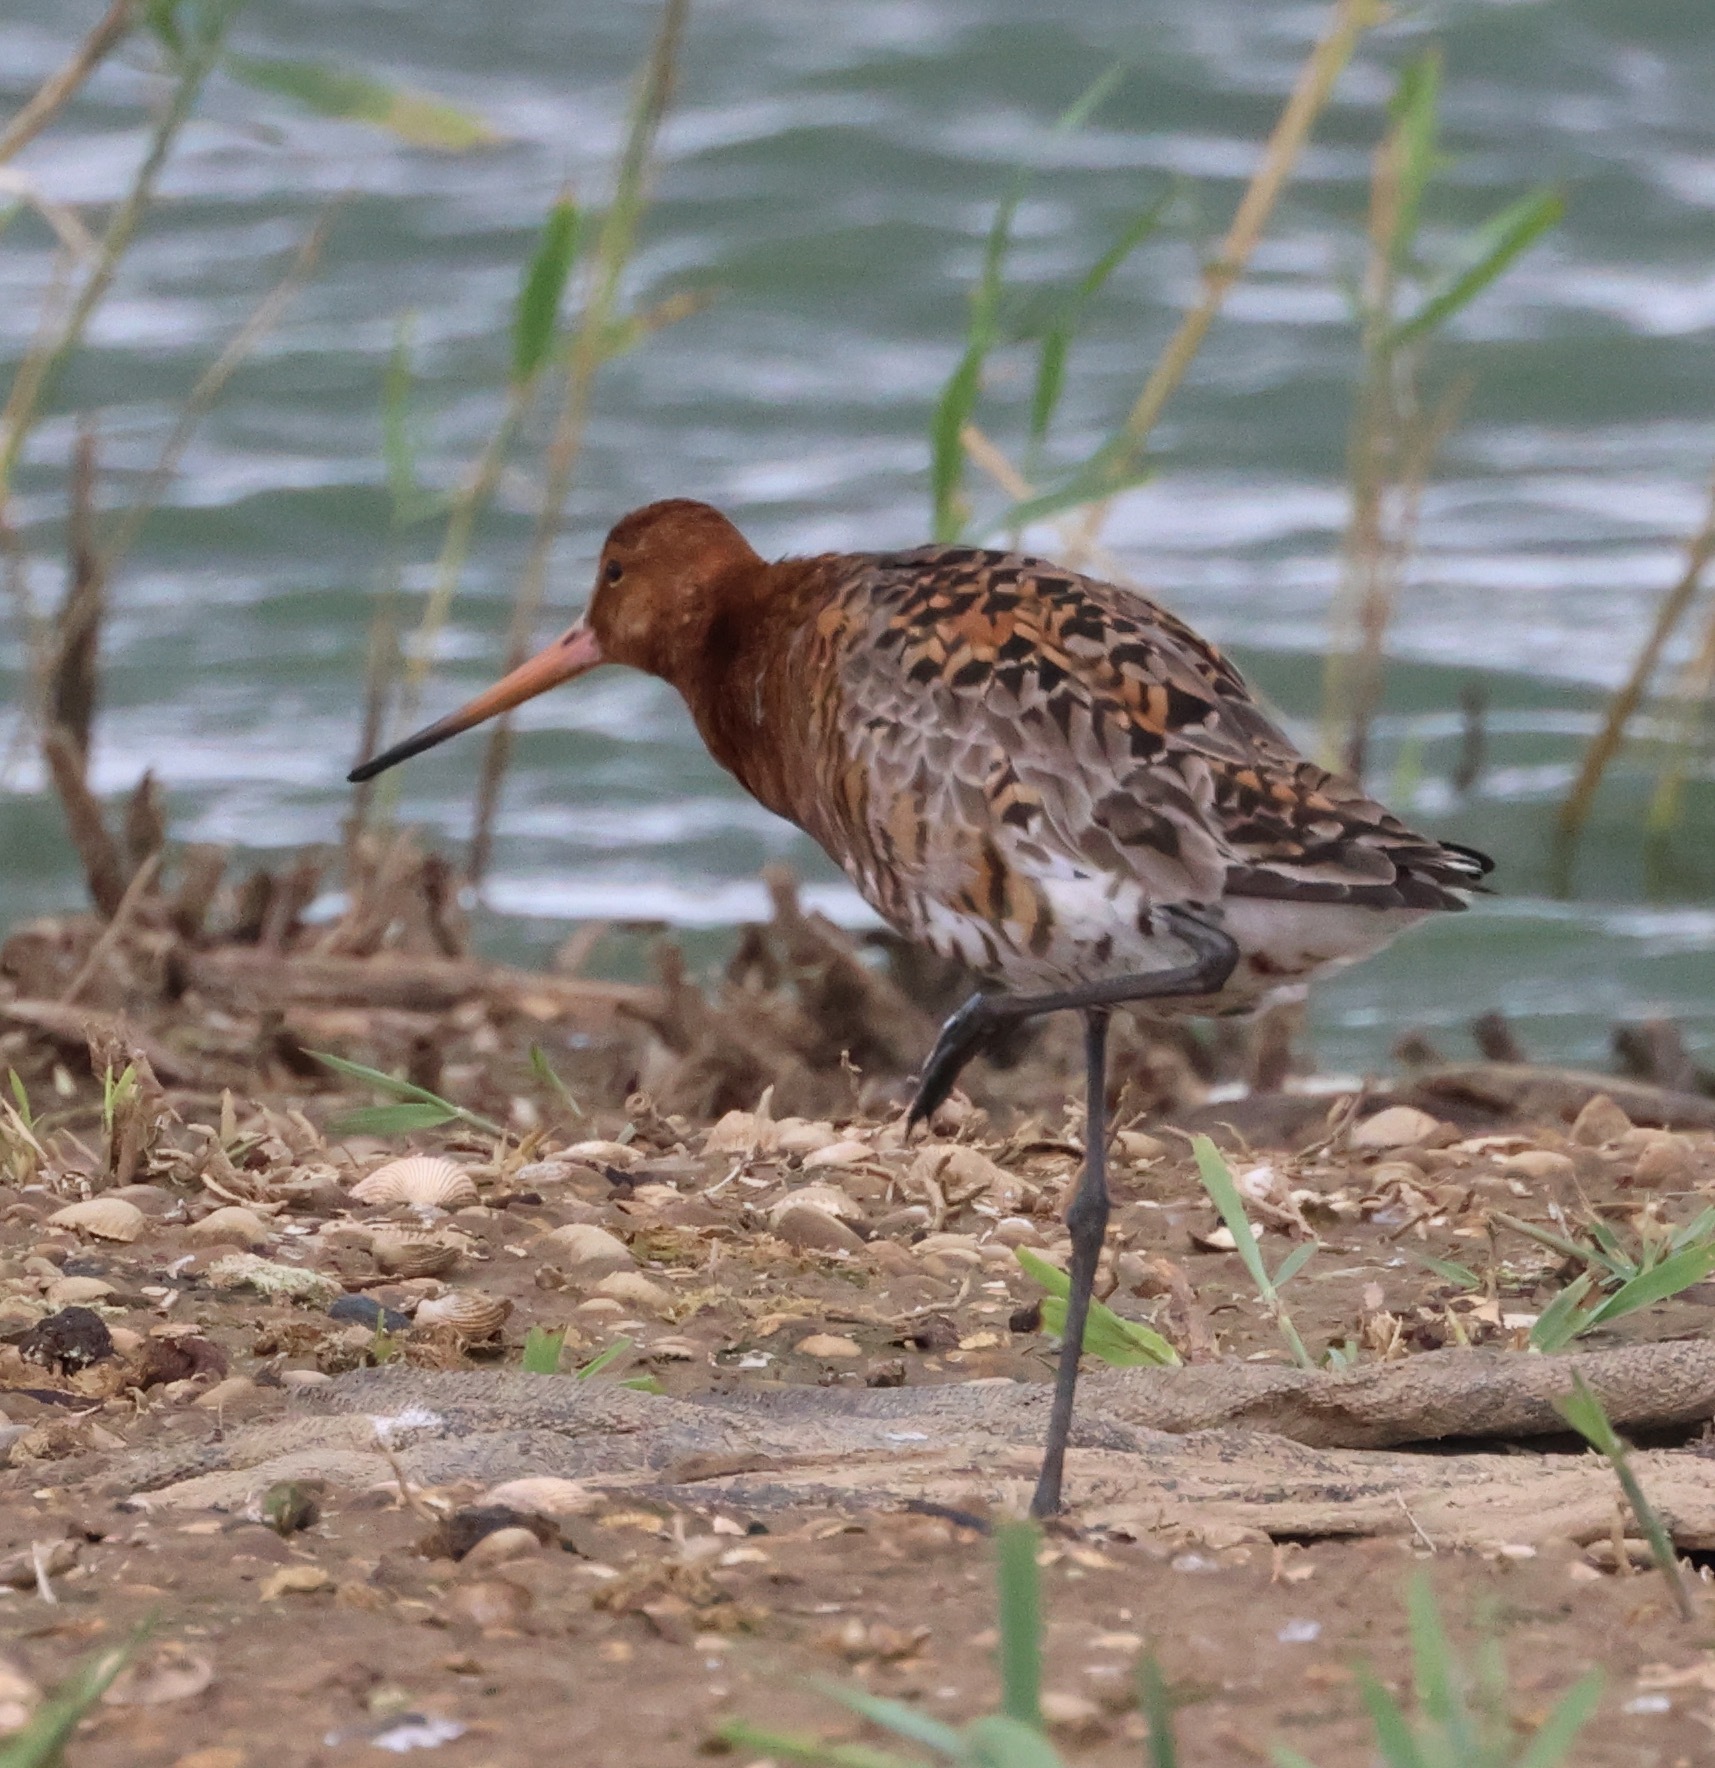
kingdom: Animalia
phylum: Chordata
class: Aves
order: Charadriiformes
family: Scolopacidae
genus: Limosa
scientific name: Limosa limosa
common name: Black-tailed godwit
